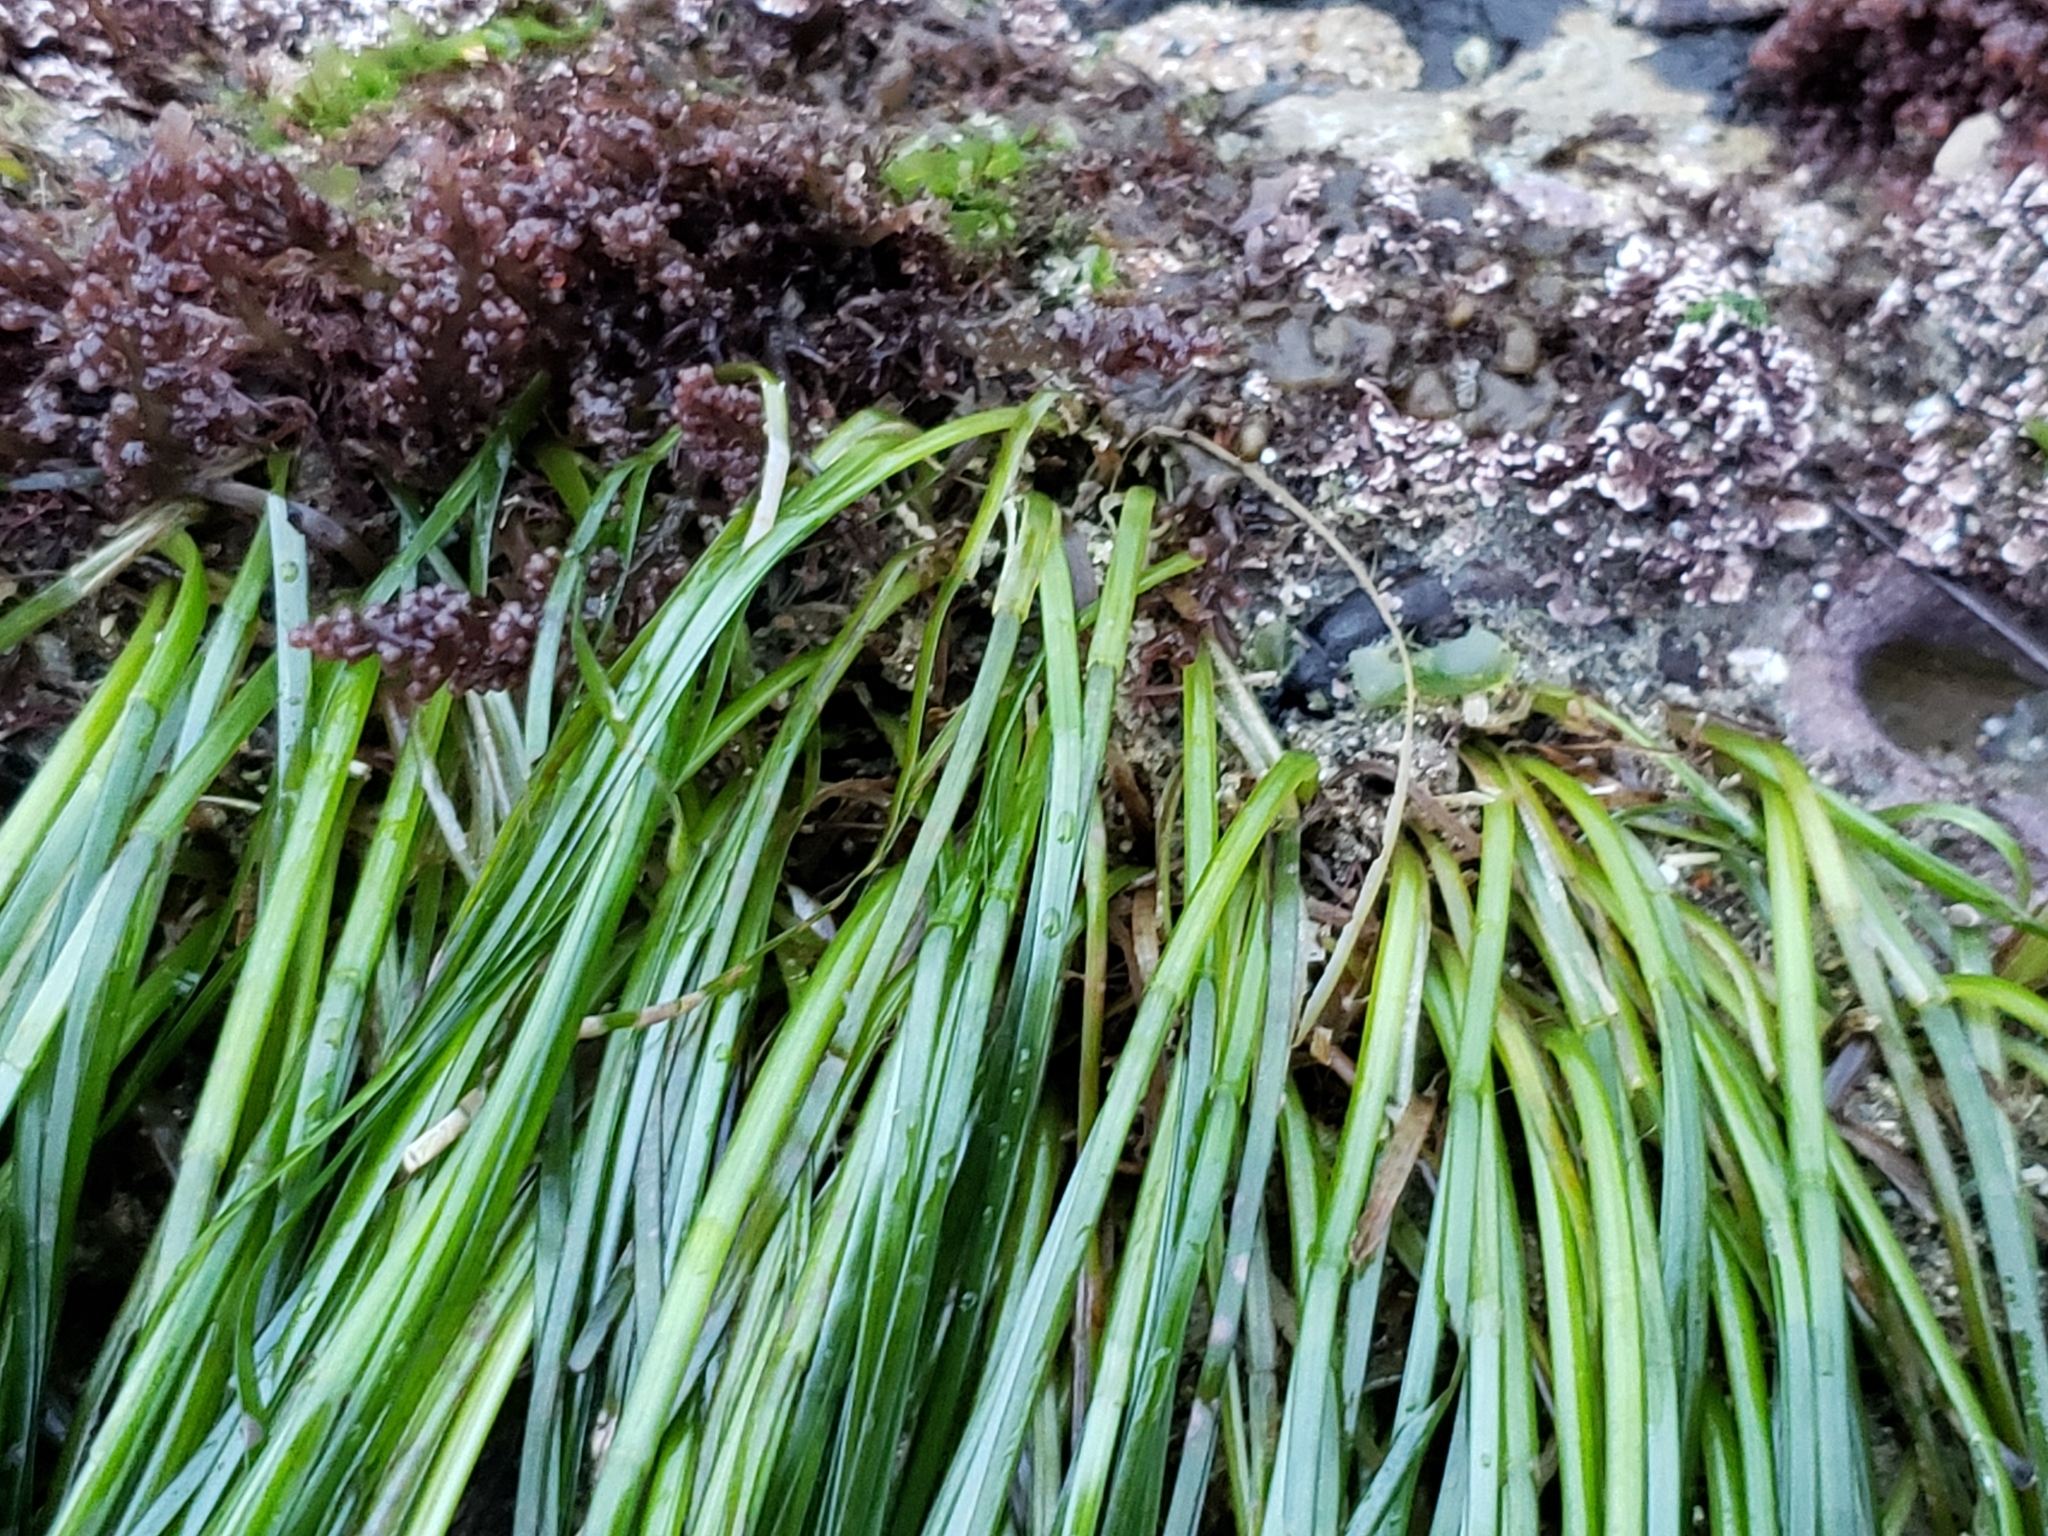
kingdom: Plantae
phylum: Tracheophyta
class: Liliopsida
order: Alismatales
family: Zosteraceae
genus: Phyllospadix
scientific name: Phyllospadix torreyi
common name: Surfgrass
